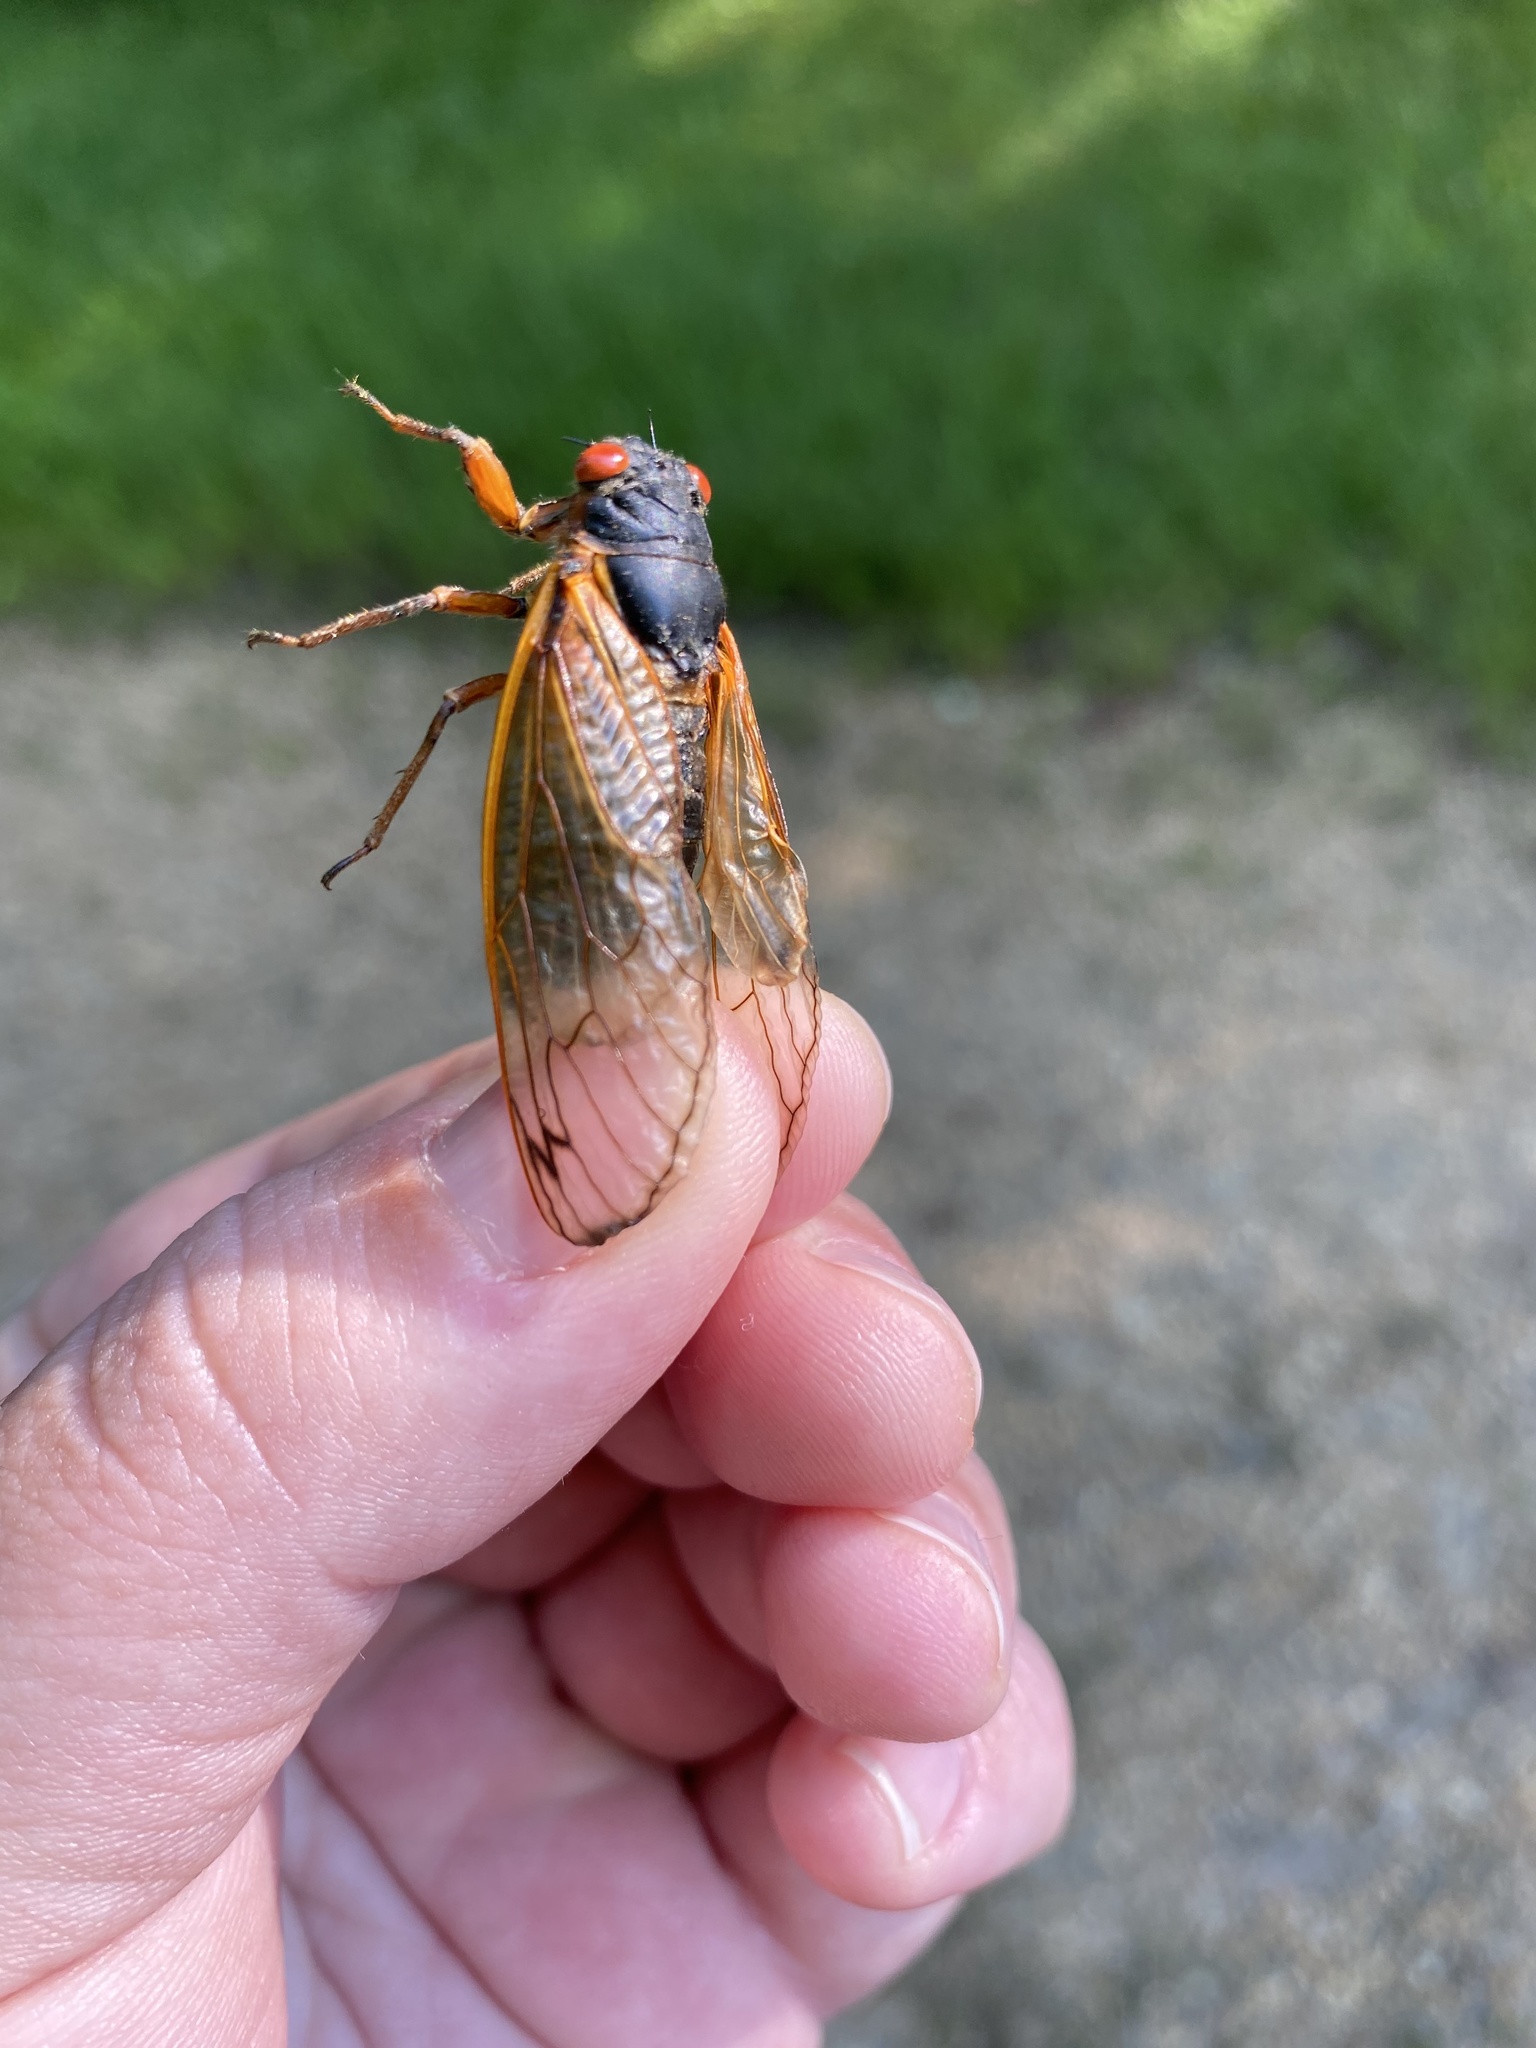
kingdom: Animalia
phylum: Arthropoda
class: Insecta
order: Hemiptera
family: Cicadidae
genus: Magicicada
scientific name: Magicicada septendecim
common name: Periodical cicada
